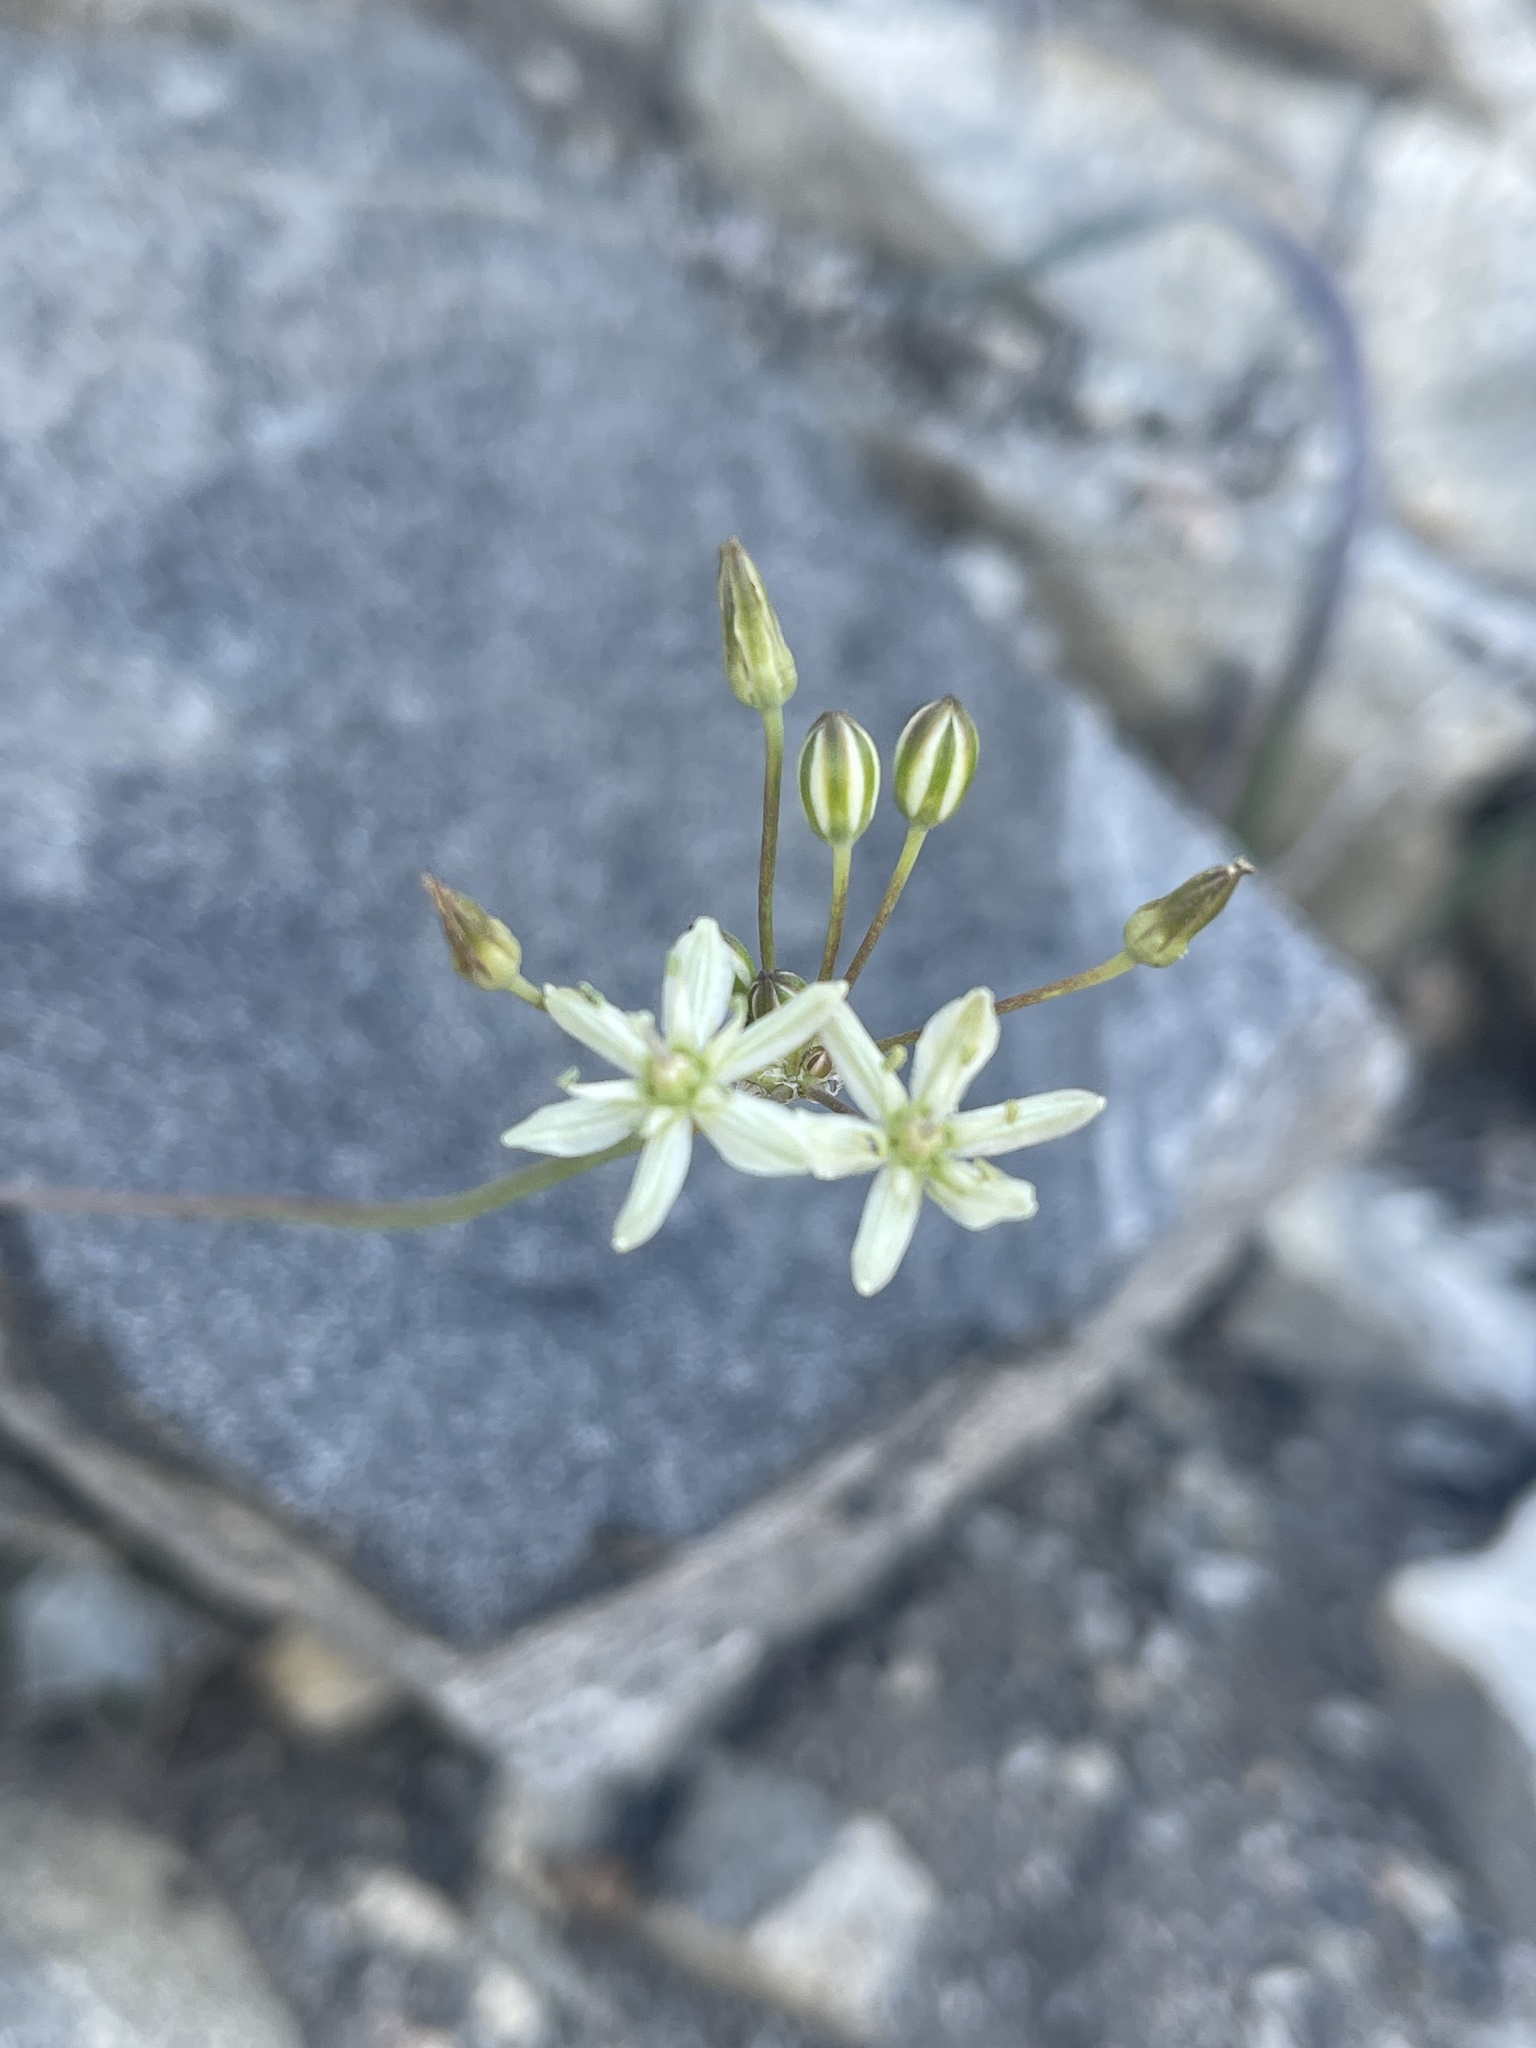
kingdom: Plantae
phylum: Tracheophyta
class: Liliopsida
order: Asparagales
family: Asparagaceae
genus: Muilla
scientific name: Muilla maritima
